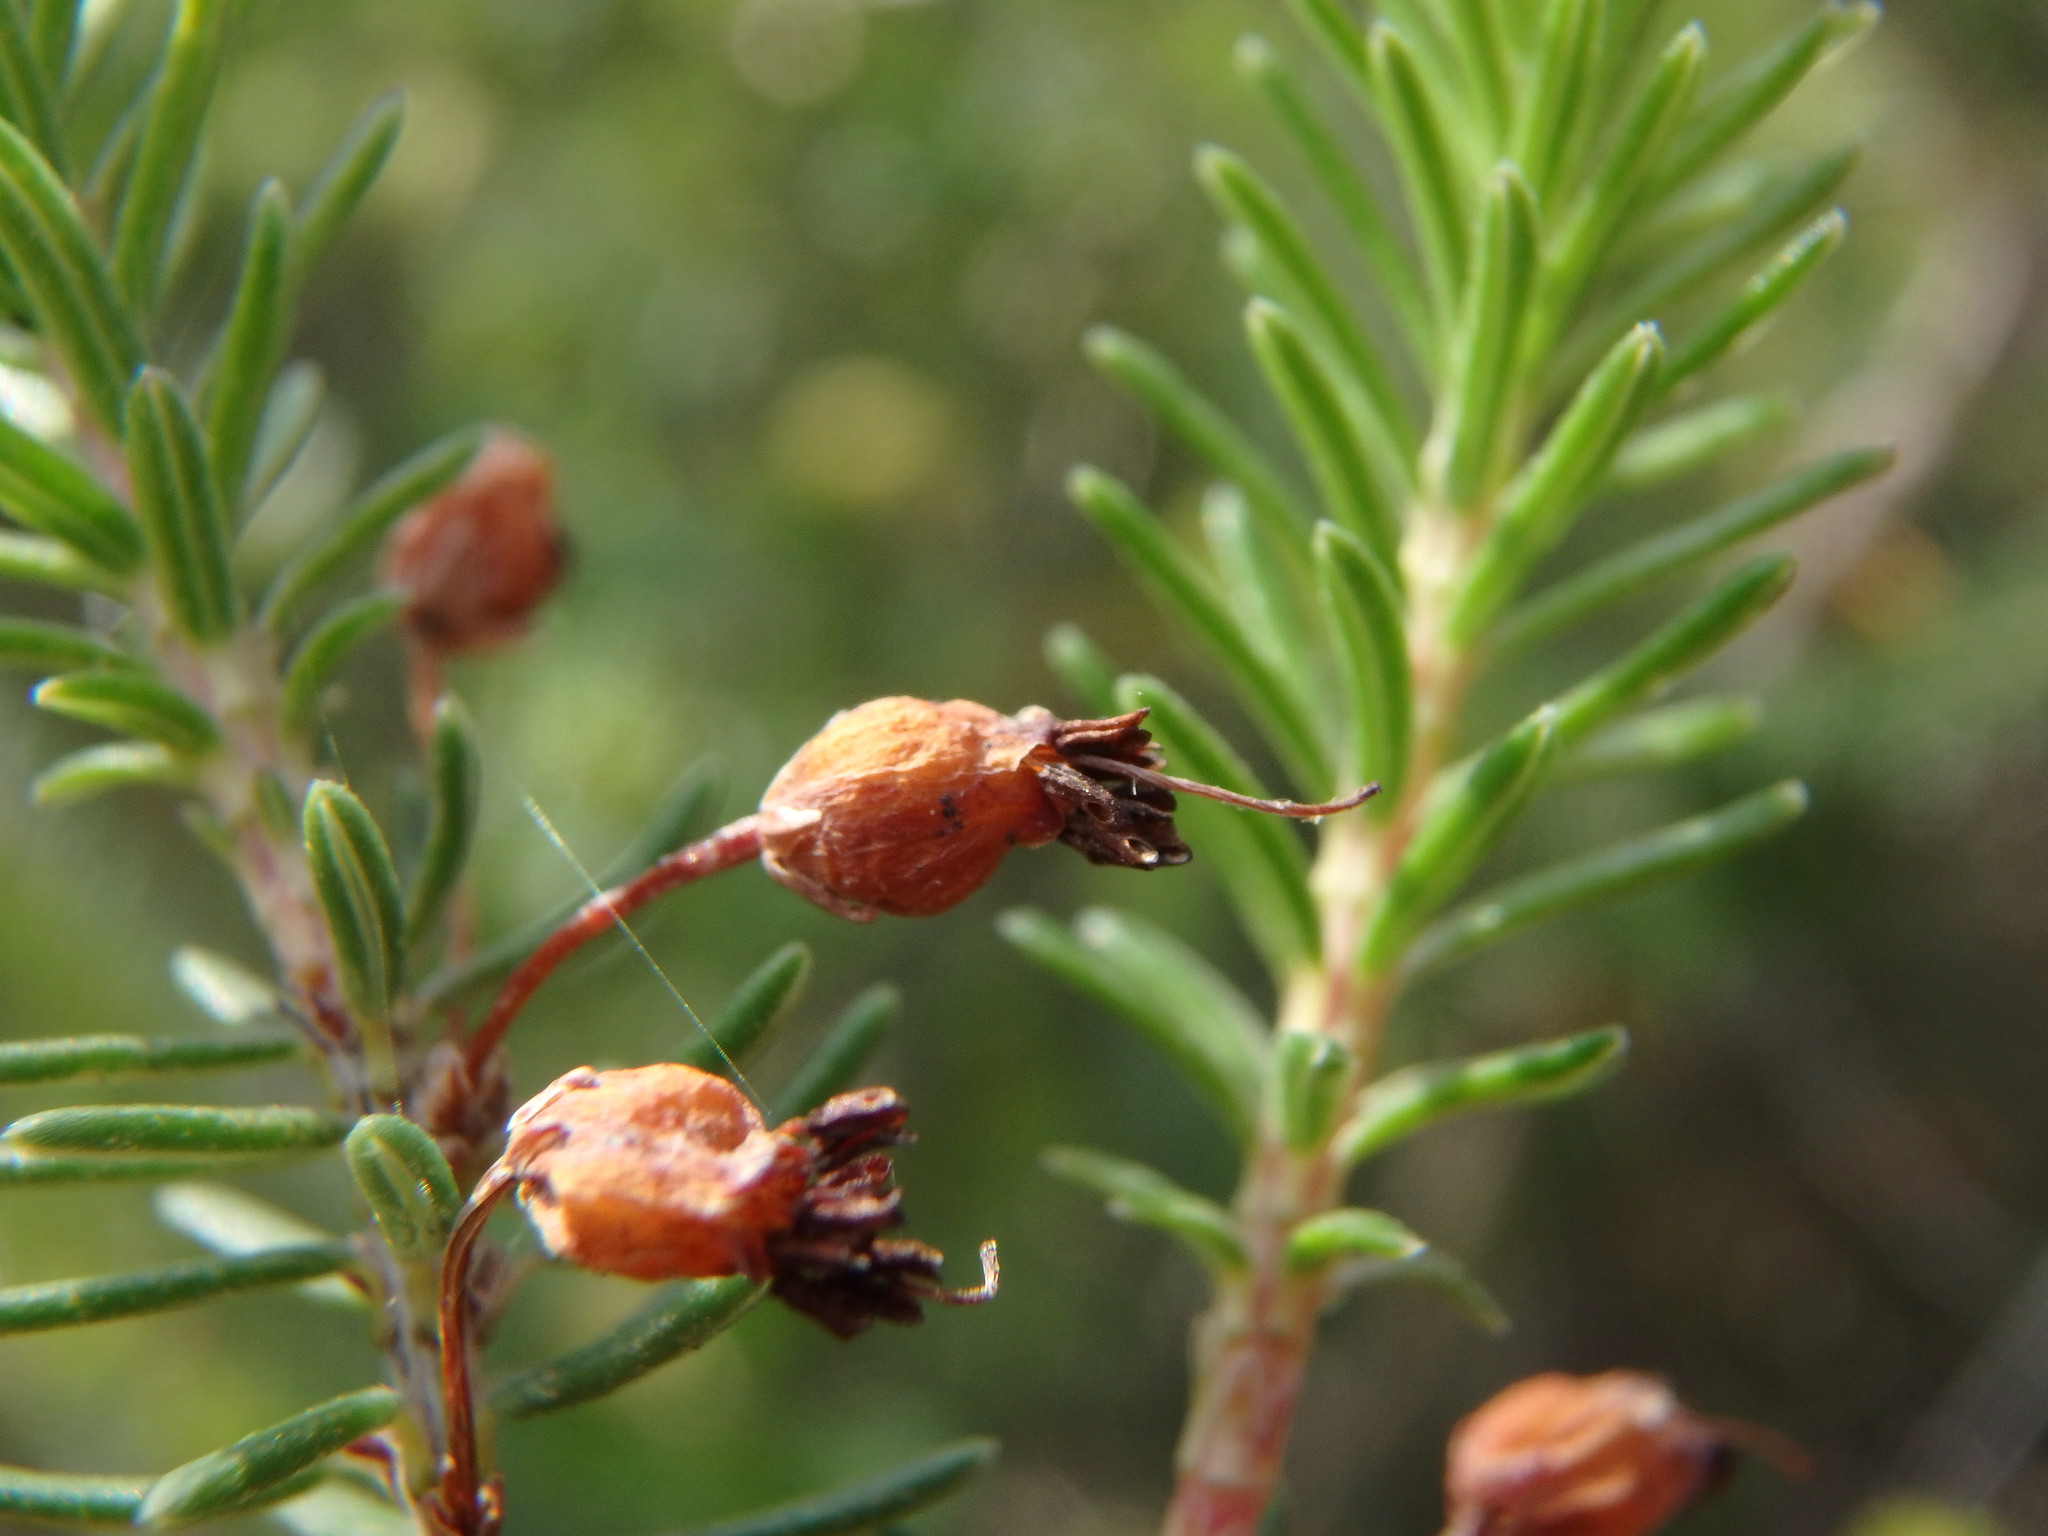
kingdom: Plantae
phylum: Tracheophyta
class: Magnoliopsida
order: Ericales
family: Ericaceae
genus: Erica
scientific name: Erica multiflora
